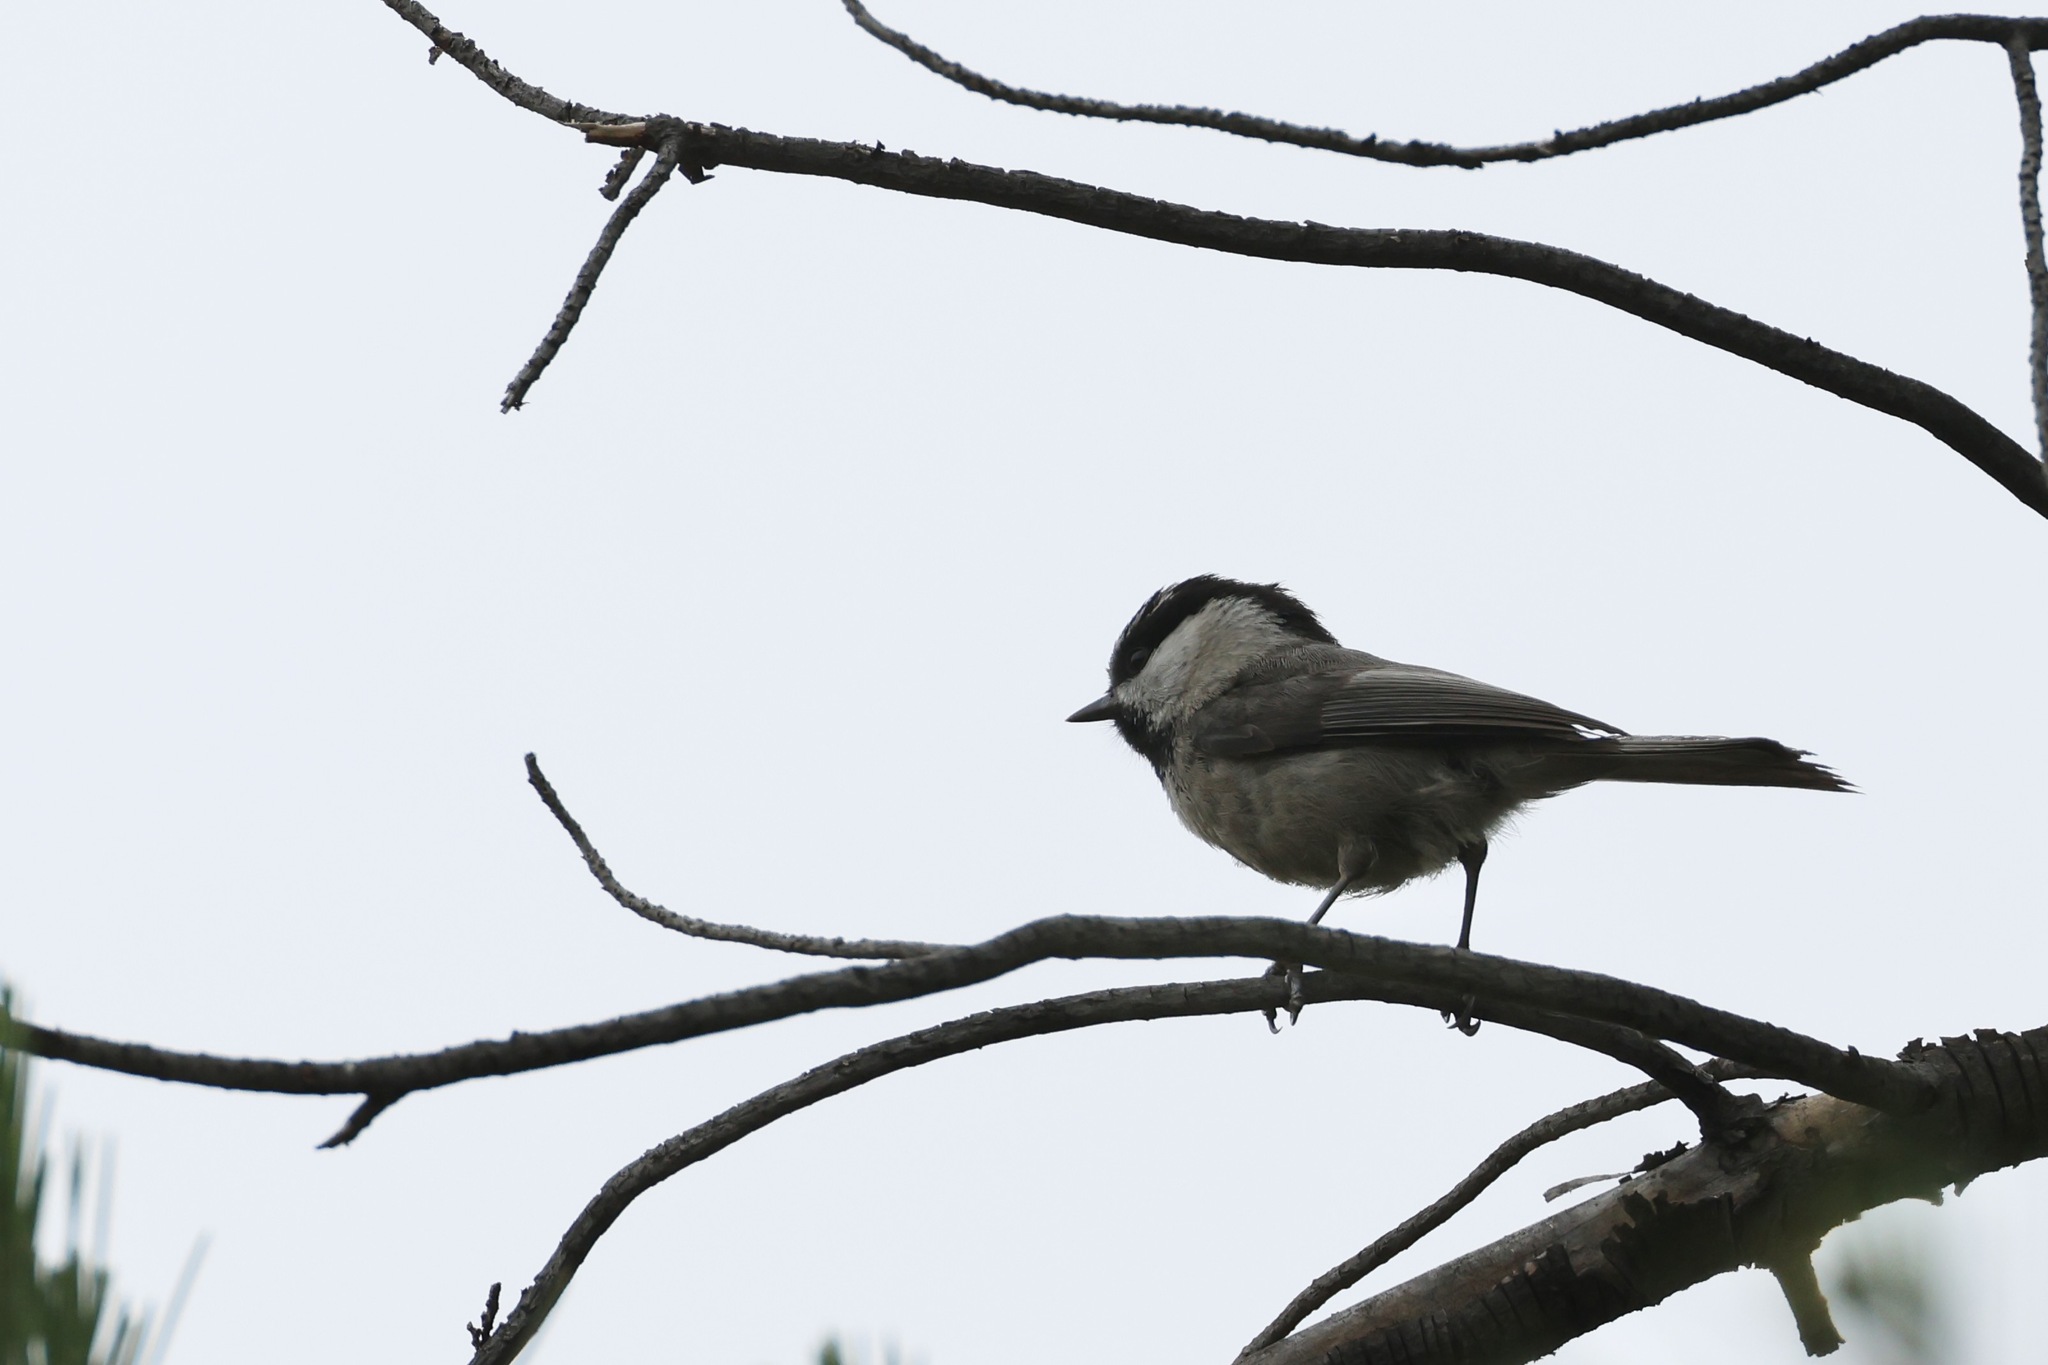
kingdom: Animalia
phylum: Chordata
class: Aves
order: Passeriformes
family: Paridae
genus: Poecile
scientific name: Poecile gambeli
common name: Mountain chickadee
